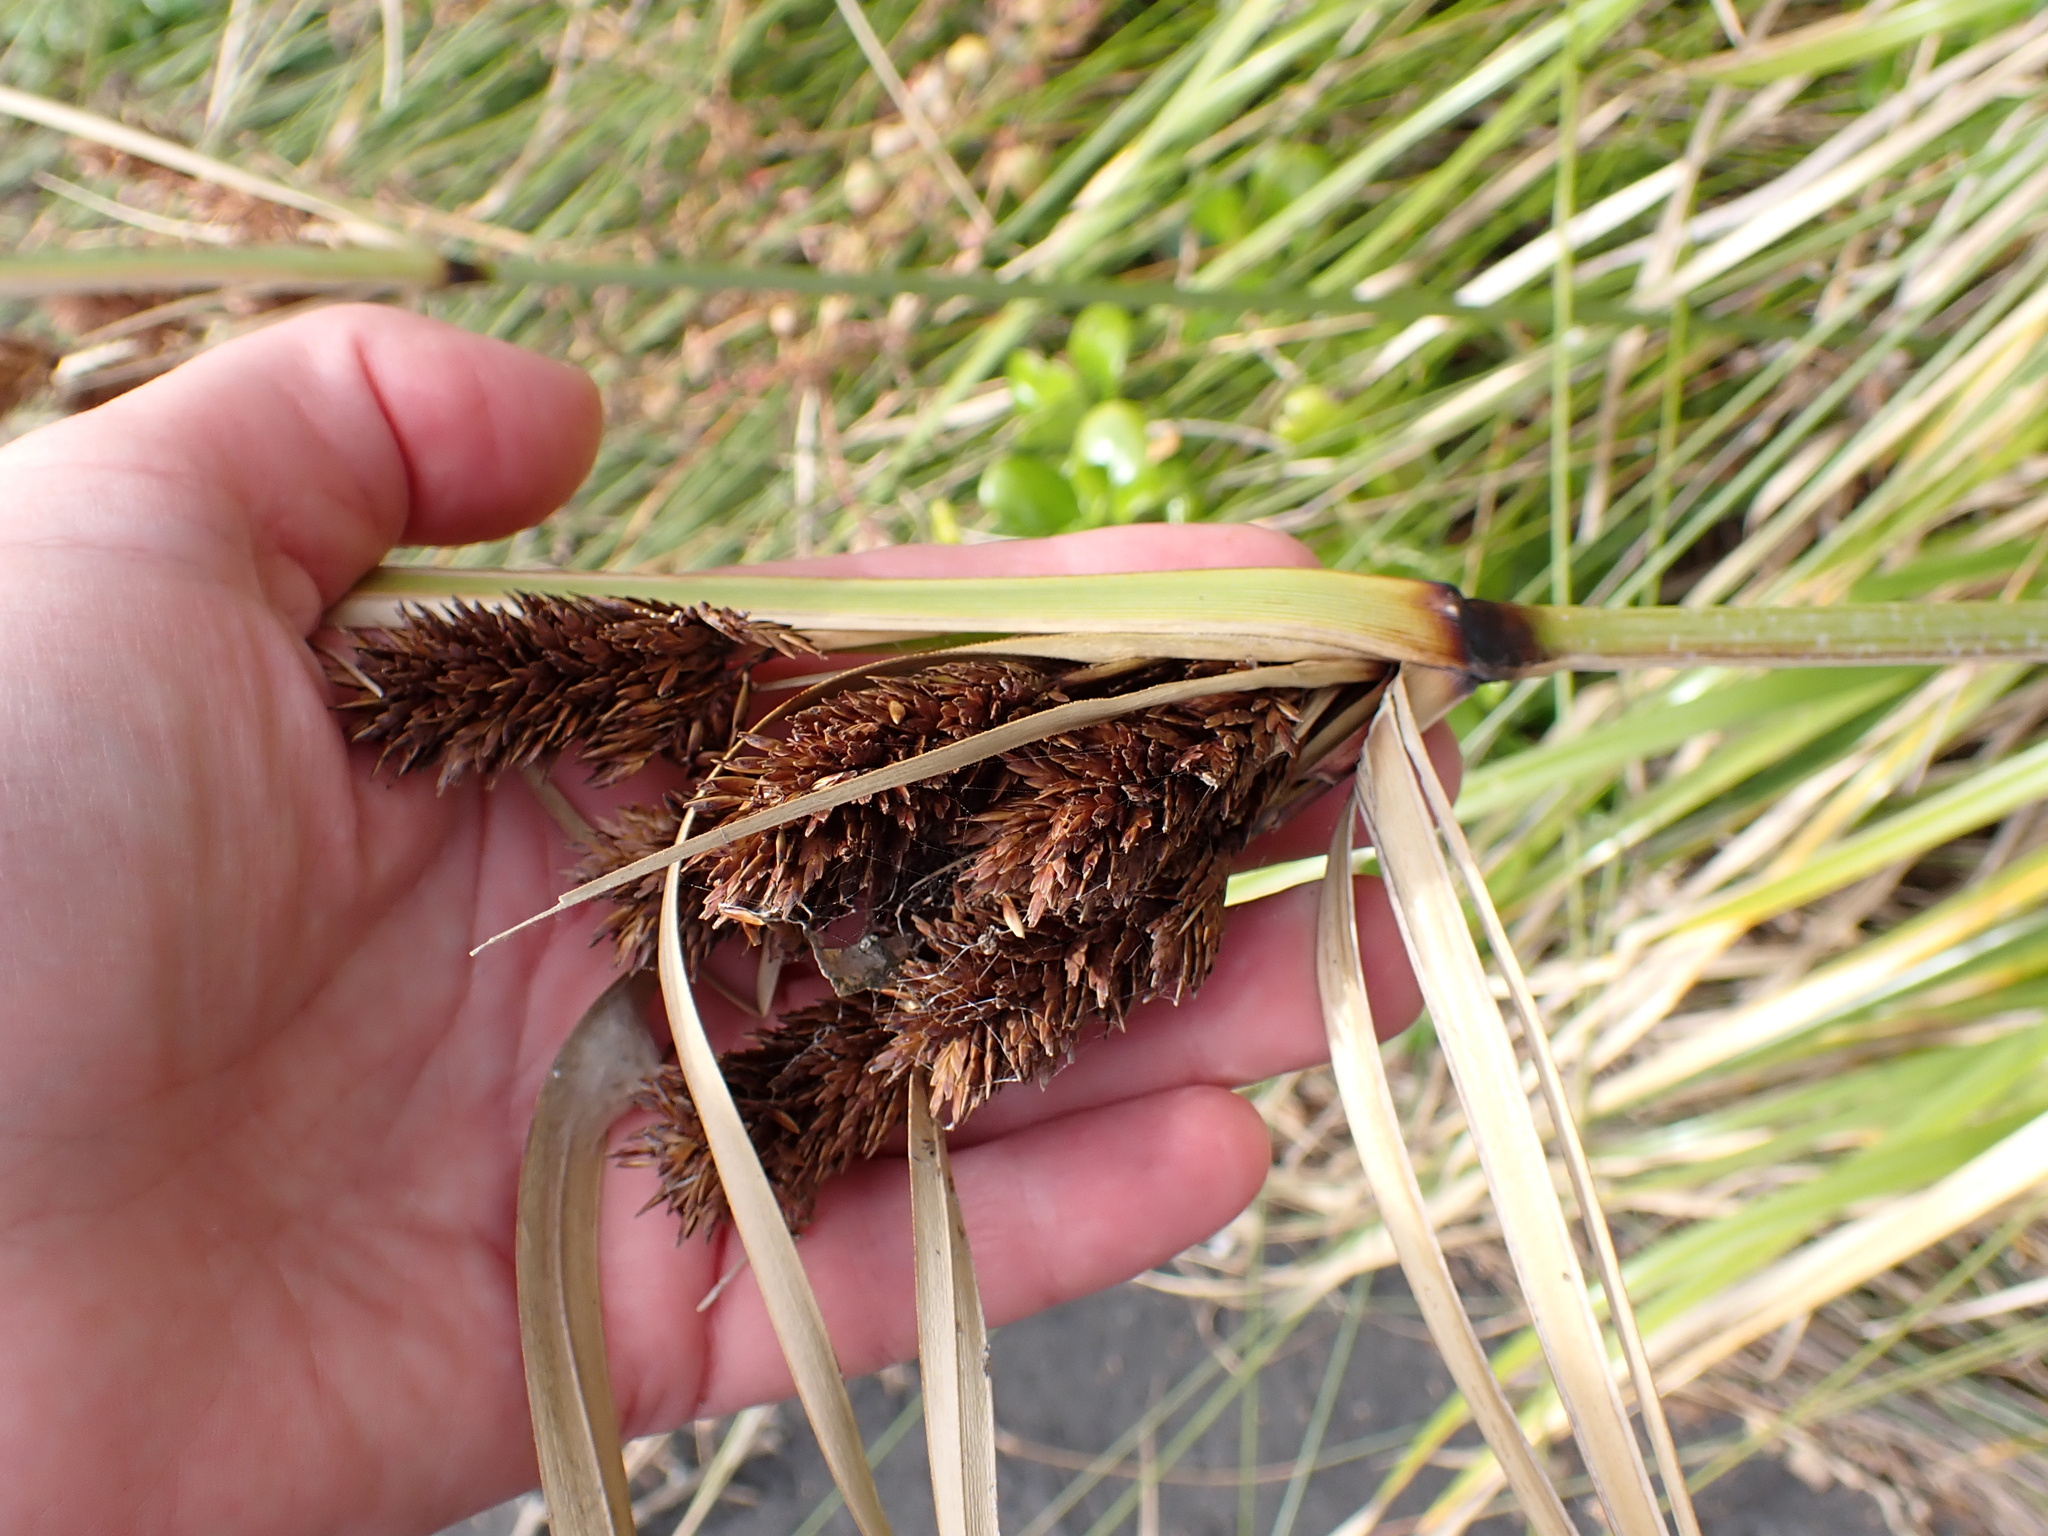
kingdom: Plantae
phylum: Tracheophyta
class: Liliopsida
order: Poales
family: Cyperaceae
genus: Cyperus
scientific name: Cyperus ustulatus
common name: Giant umbrella-sedge
